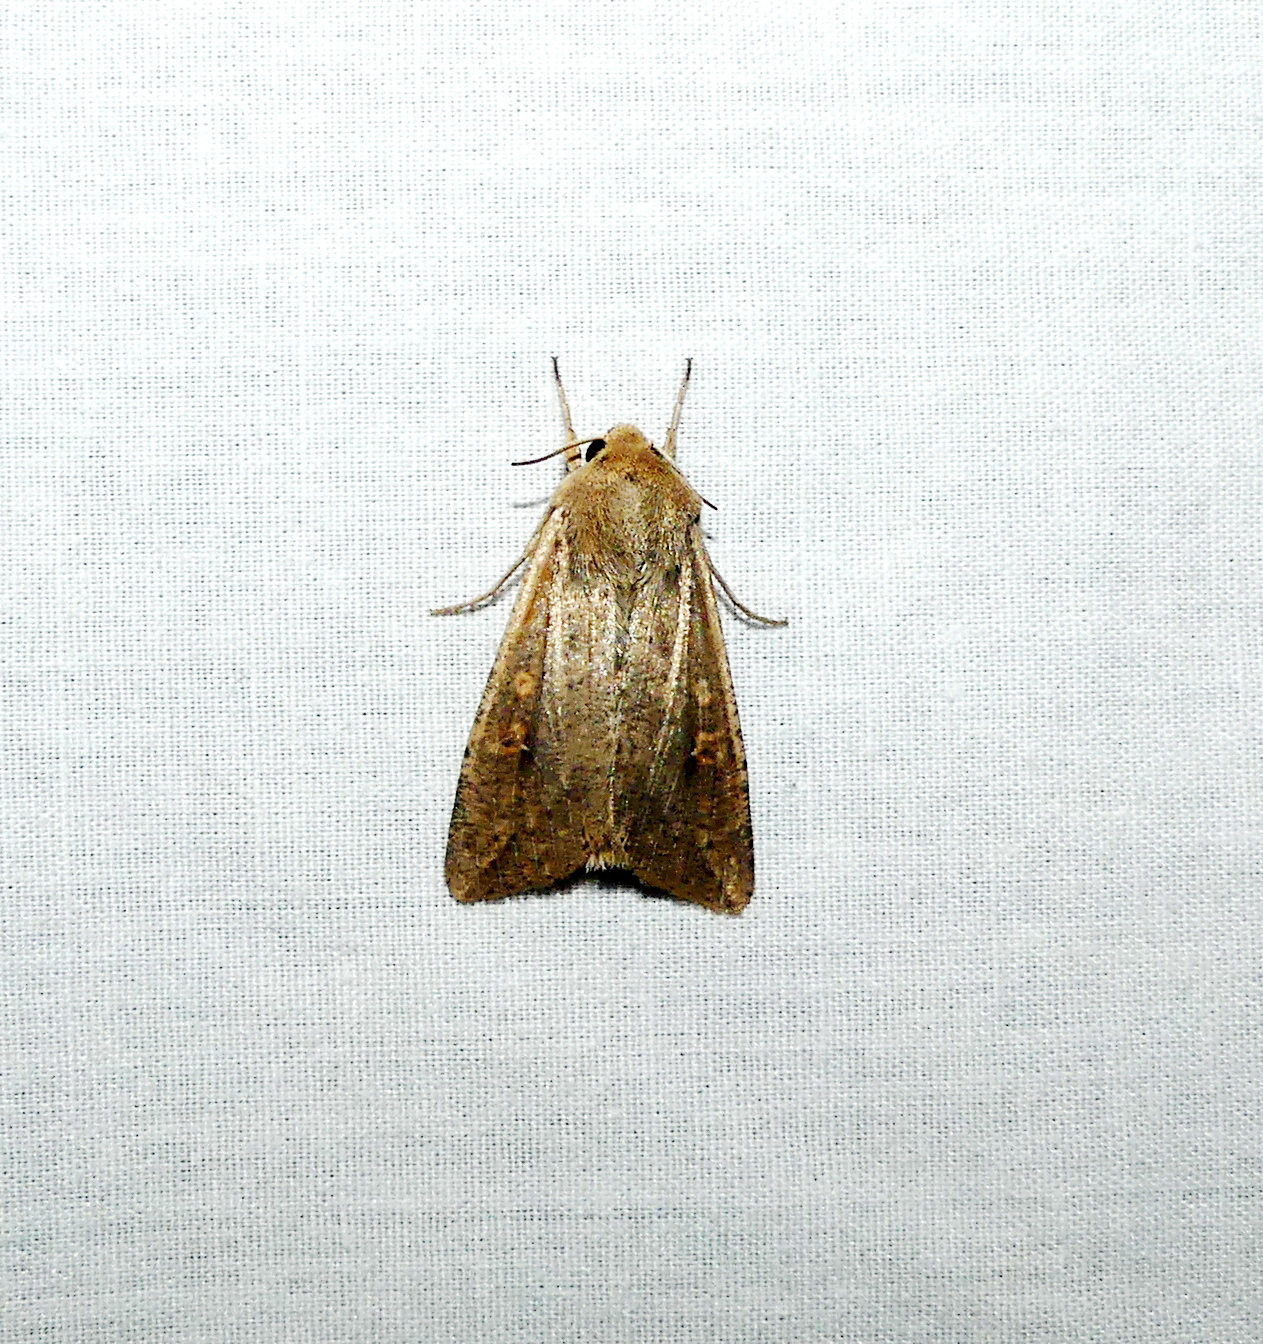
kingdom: Animalia
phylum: Arthropoda
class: Insecta
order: Lepidoptera
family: Noctuidae
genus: Mythimna
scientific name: Mythimna unipuncta
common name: White-speck
